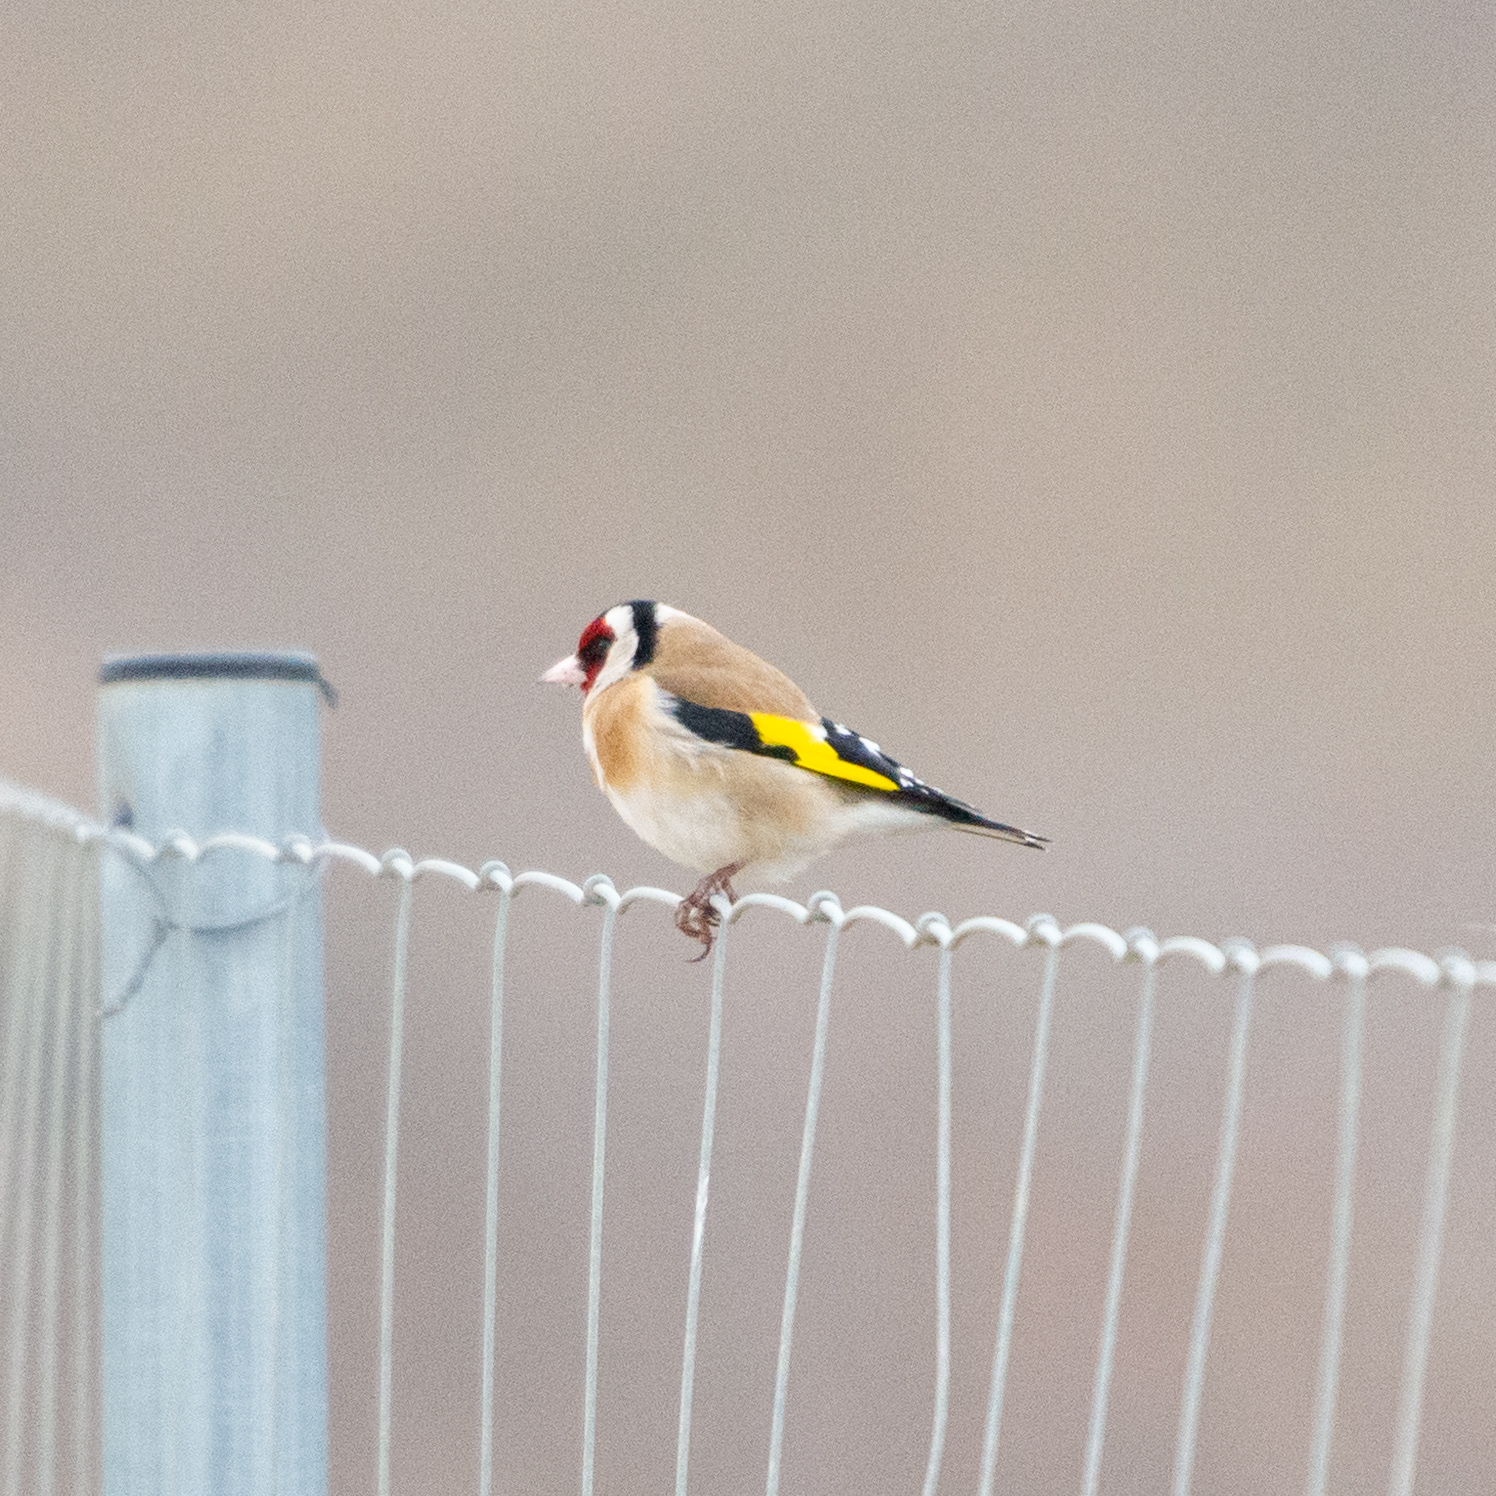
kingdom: Animalia
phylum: Chordata
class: Aves
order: Passeriformes
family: Fringillidae
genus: Carduelis
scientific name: Carduelis carduelis
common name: European goldfinch
